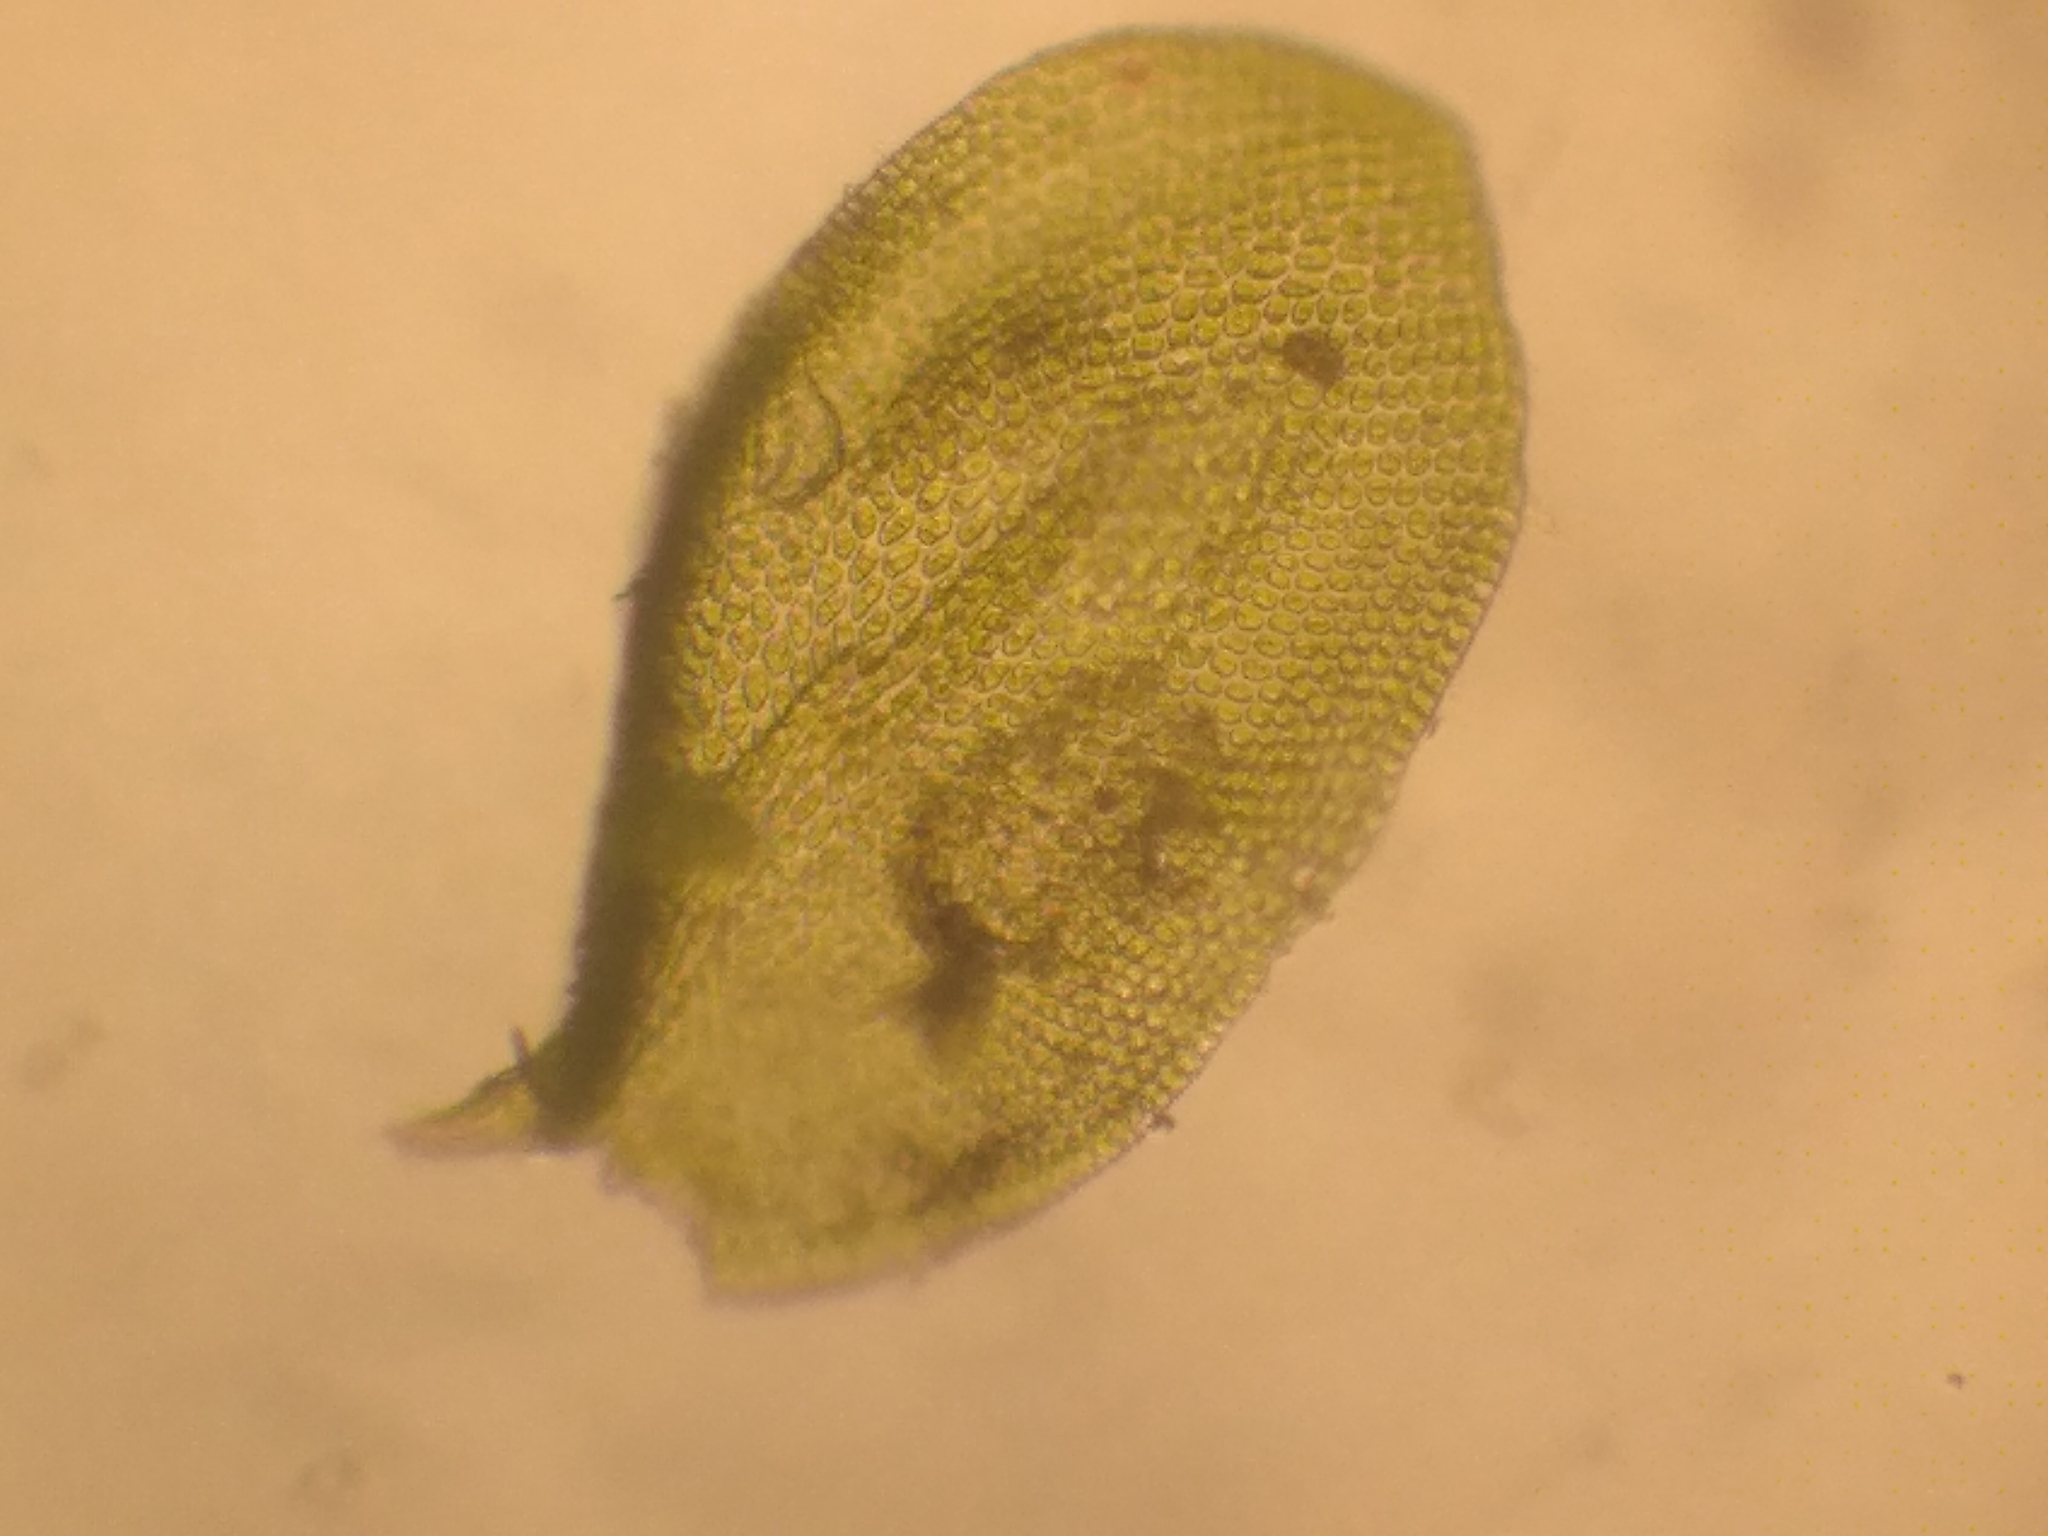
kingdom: Plantae
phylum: Bryophyta
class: Bryopsida
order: Hypnales
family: Neckeraceae
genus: Leptodon
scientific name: Leptodon smithii
